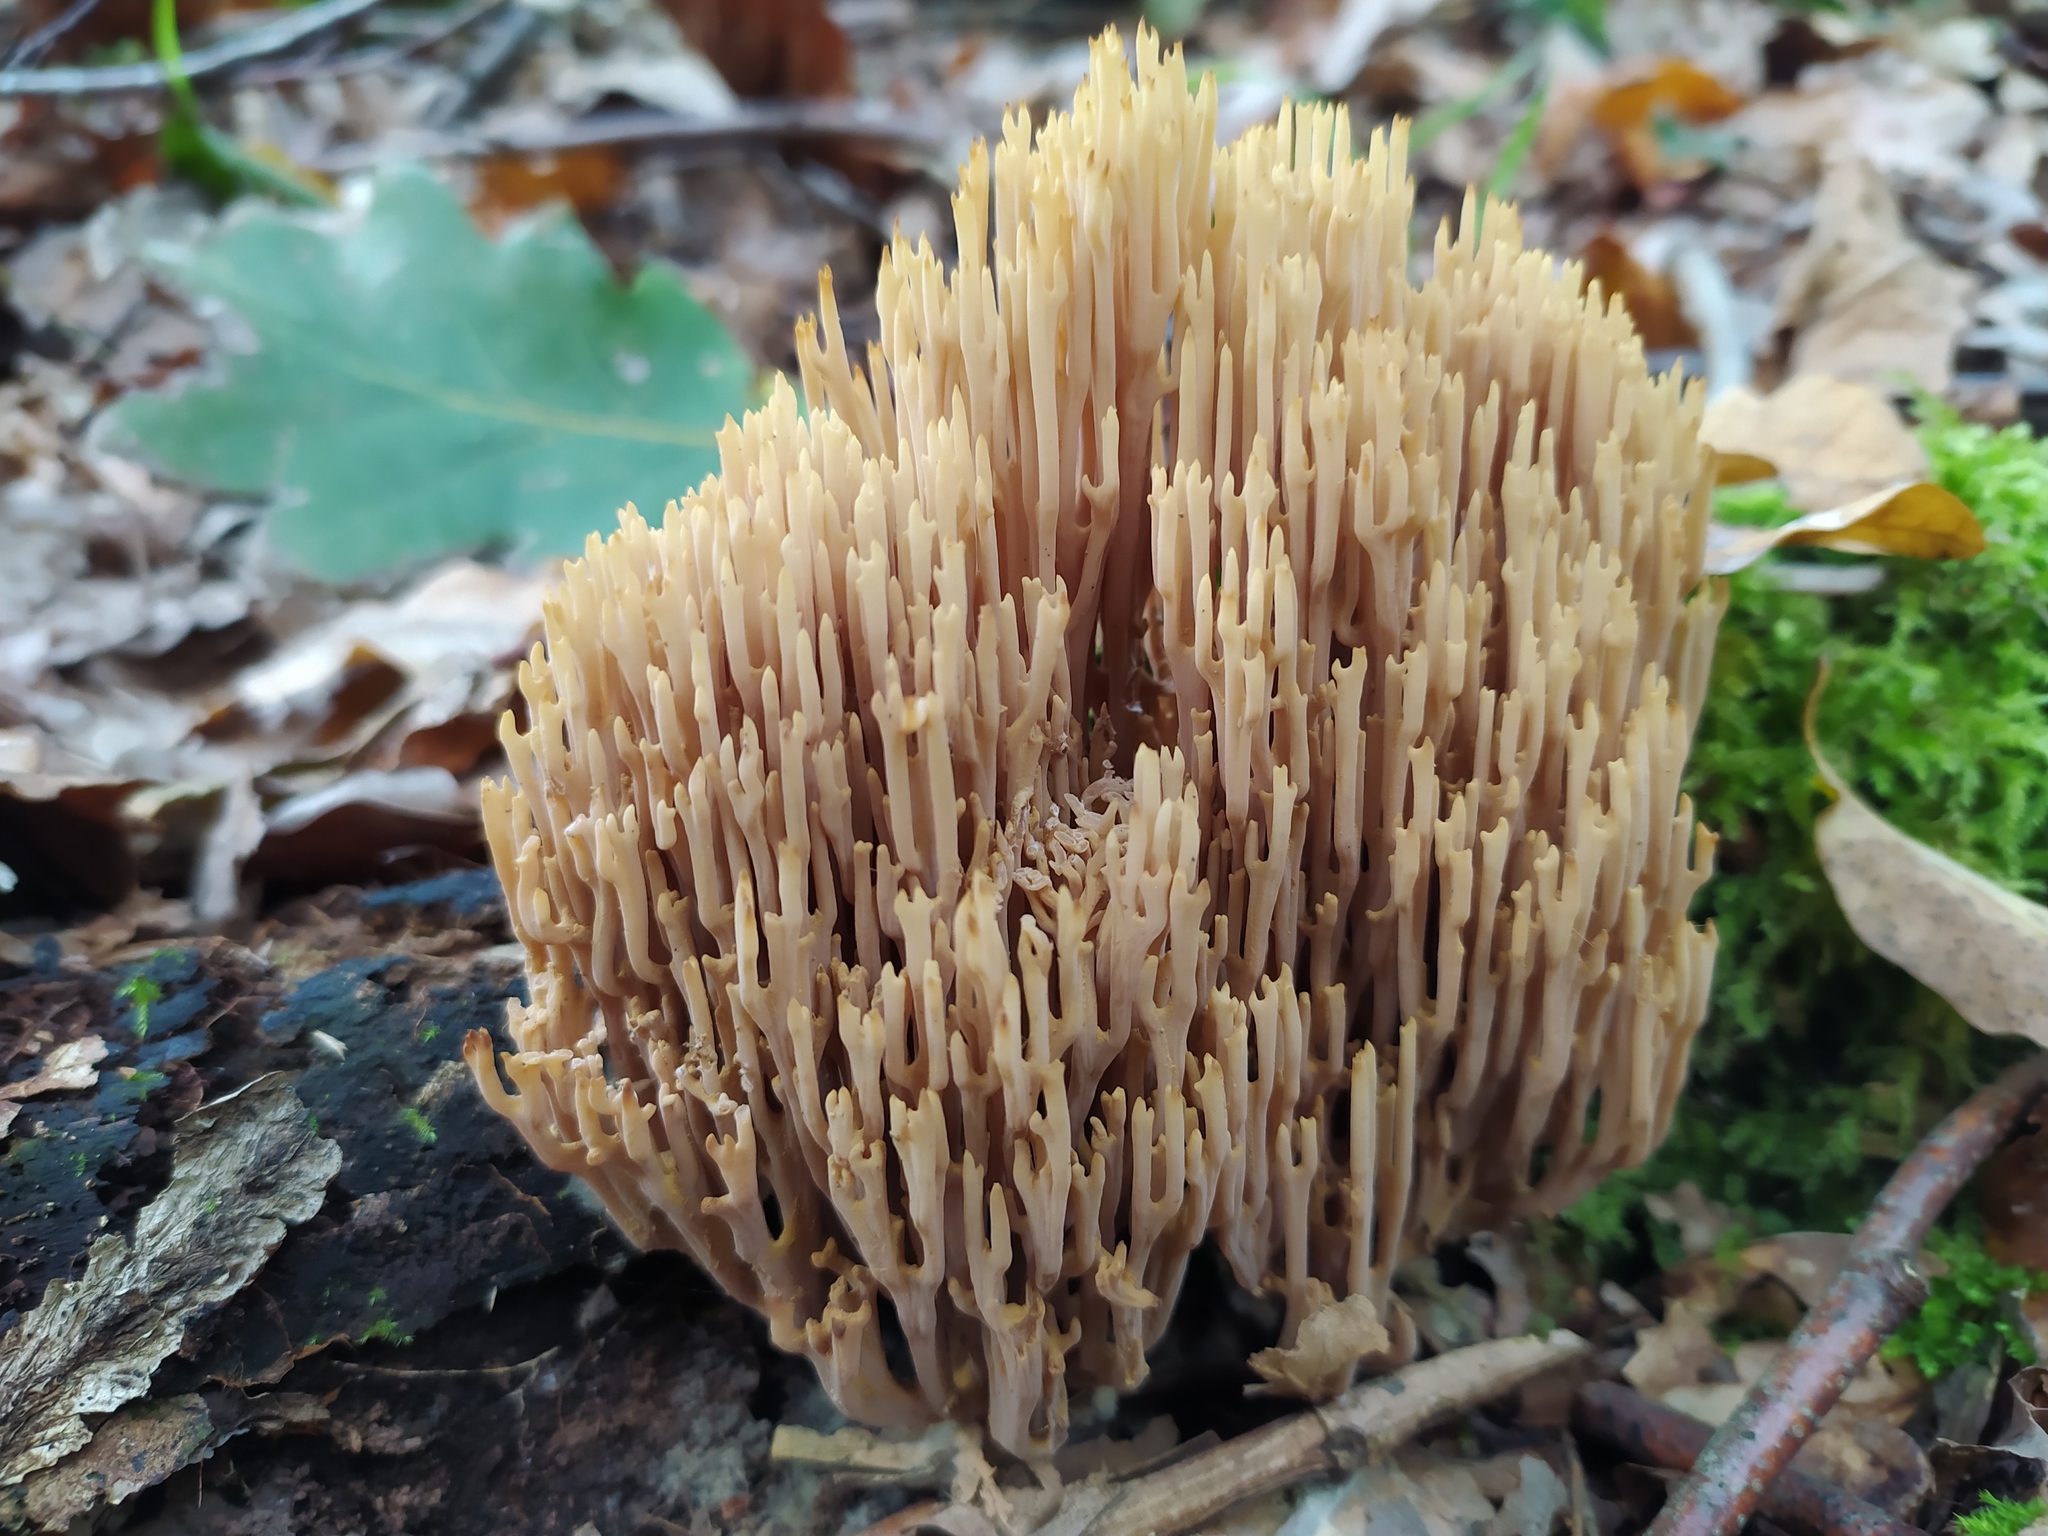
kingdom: Fungi
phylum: Basidiomycota
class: Agaricomycetes
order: Gomphales
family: Gomphaceae
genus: Ramaria
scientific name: Ramaria stricta
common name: Upright coral
